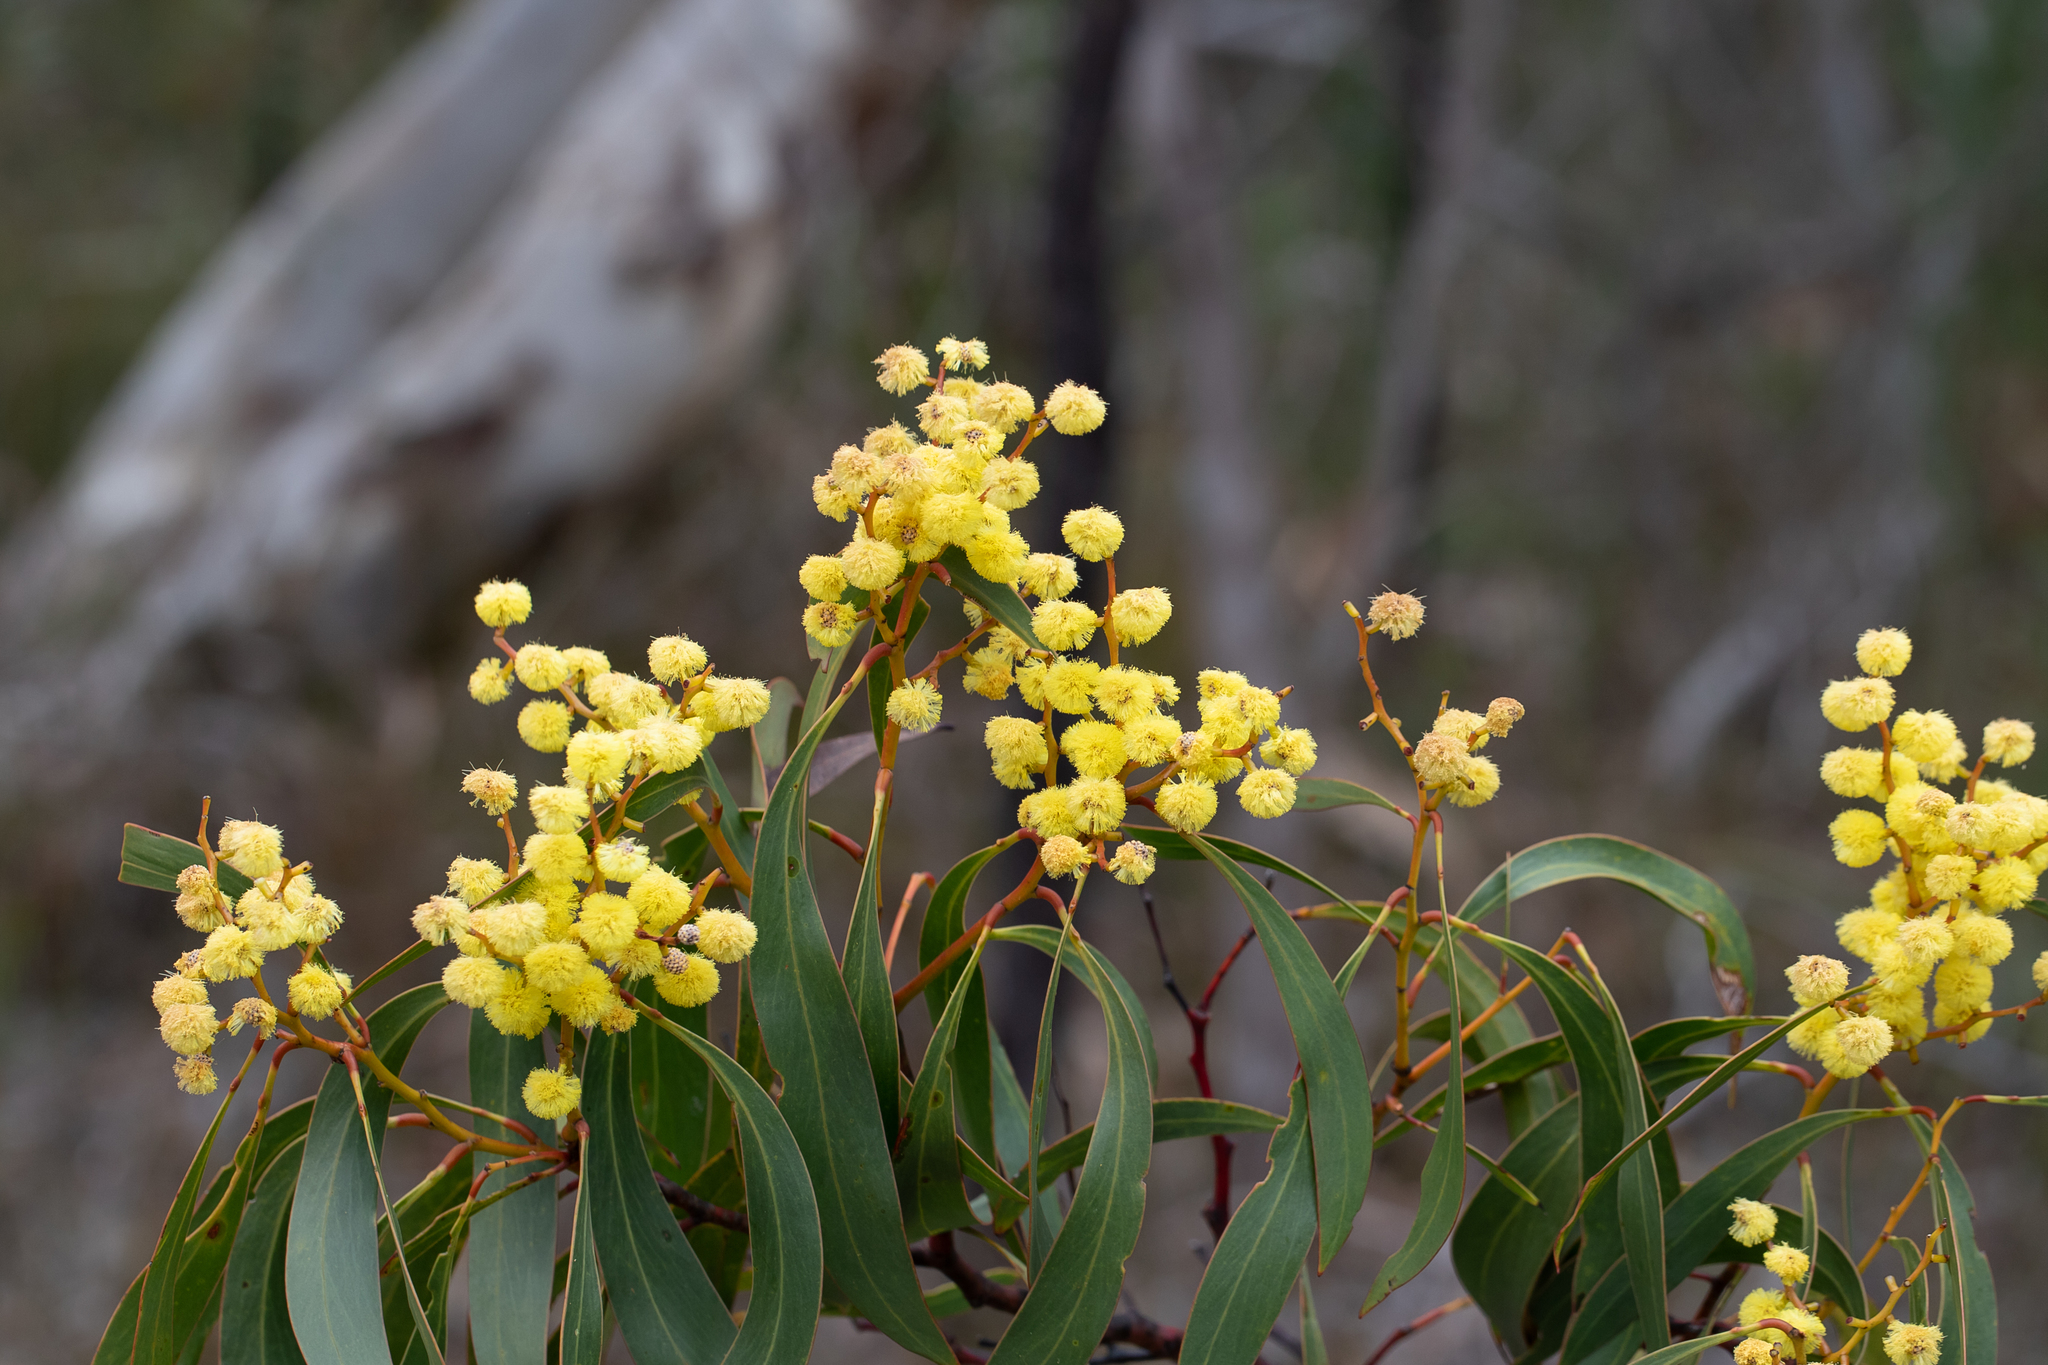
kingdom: Plantae
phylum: Tracheophyta
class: Magnoliopsida
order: Fabales
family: Fabaceae
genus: Acacia
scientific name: Acacia pycnantha
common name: Golden wattle
